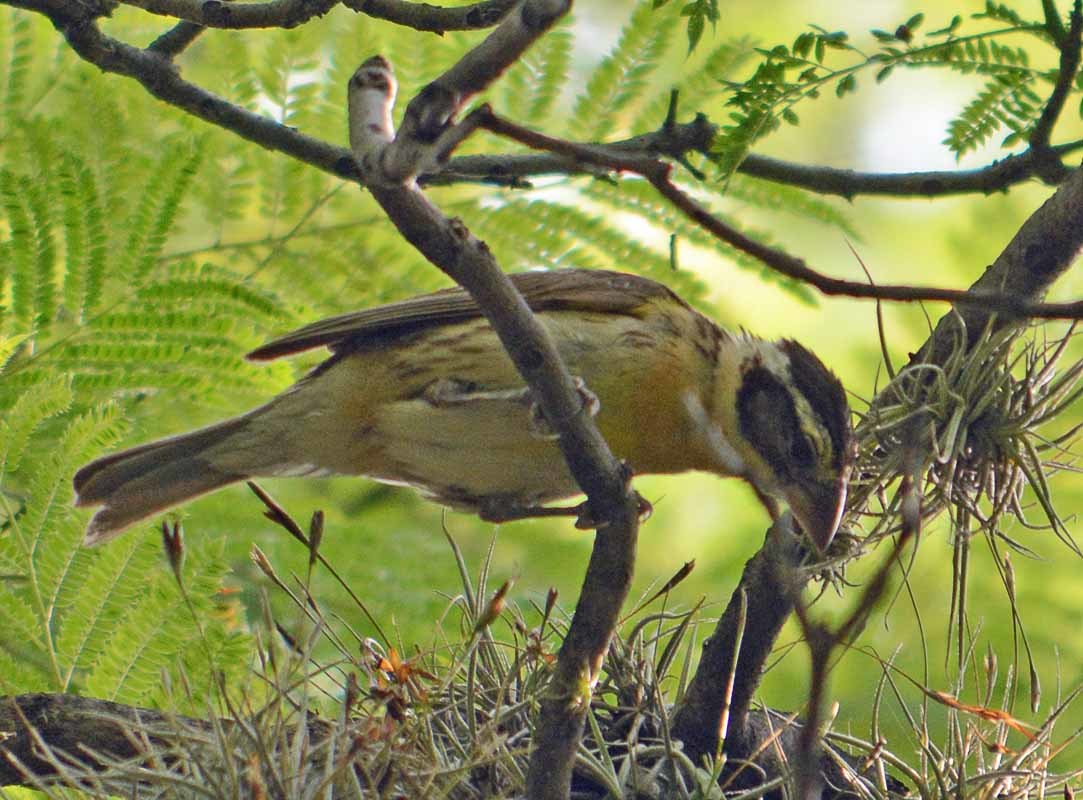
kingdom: Animalia
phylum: Chordata
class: Aves
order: Passeriformes
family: Cardinalidae
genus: Pheucticus
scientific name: Pheucticus melanocephalus
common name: Black-headed grosbeak
